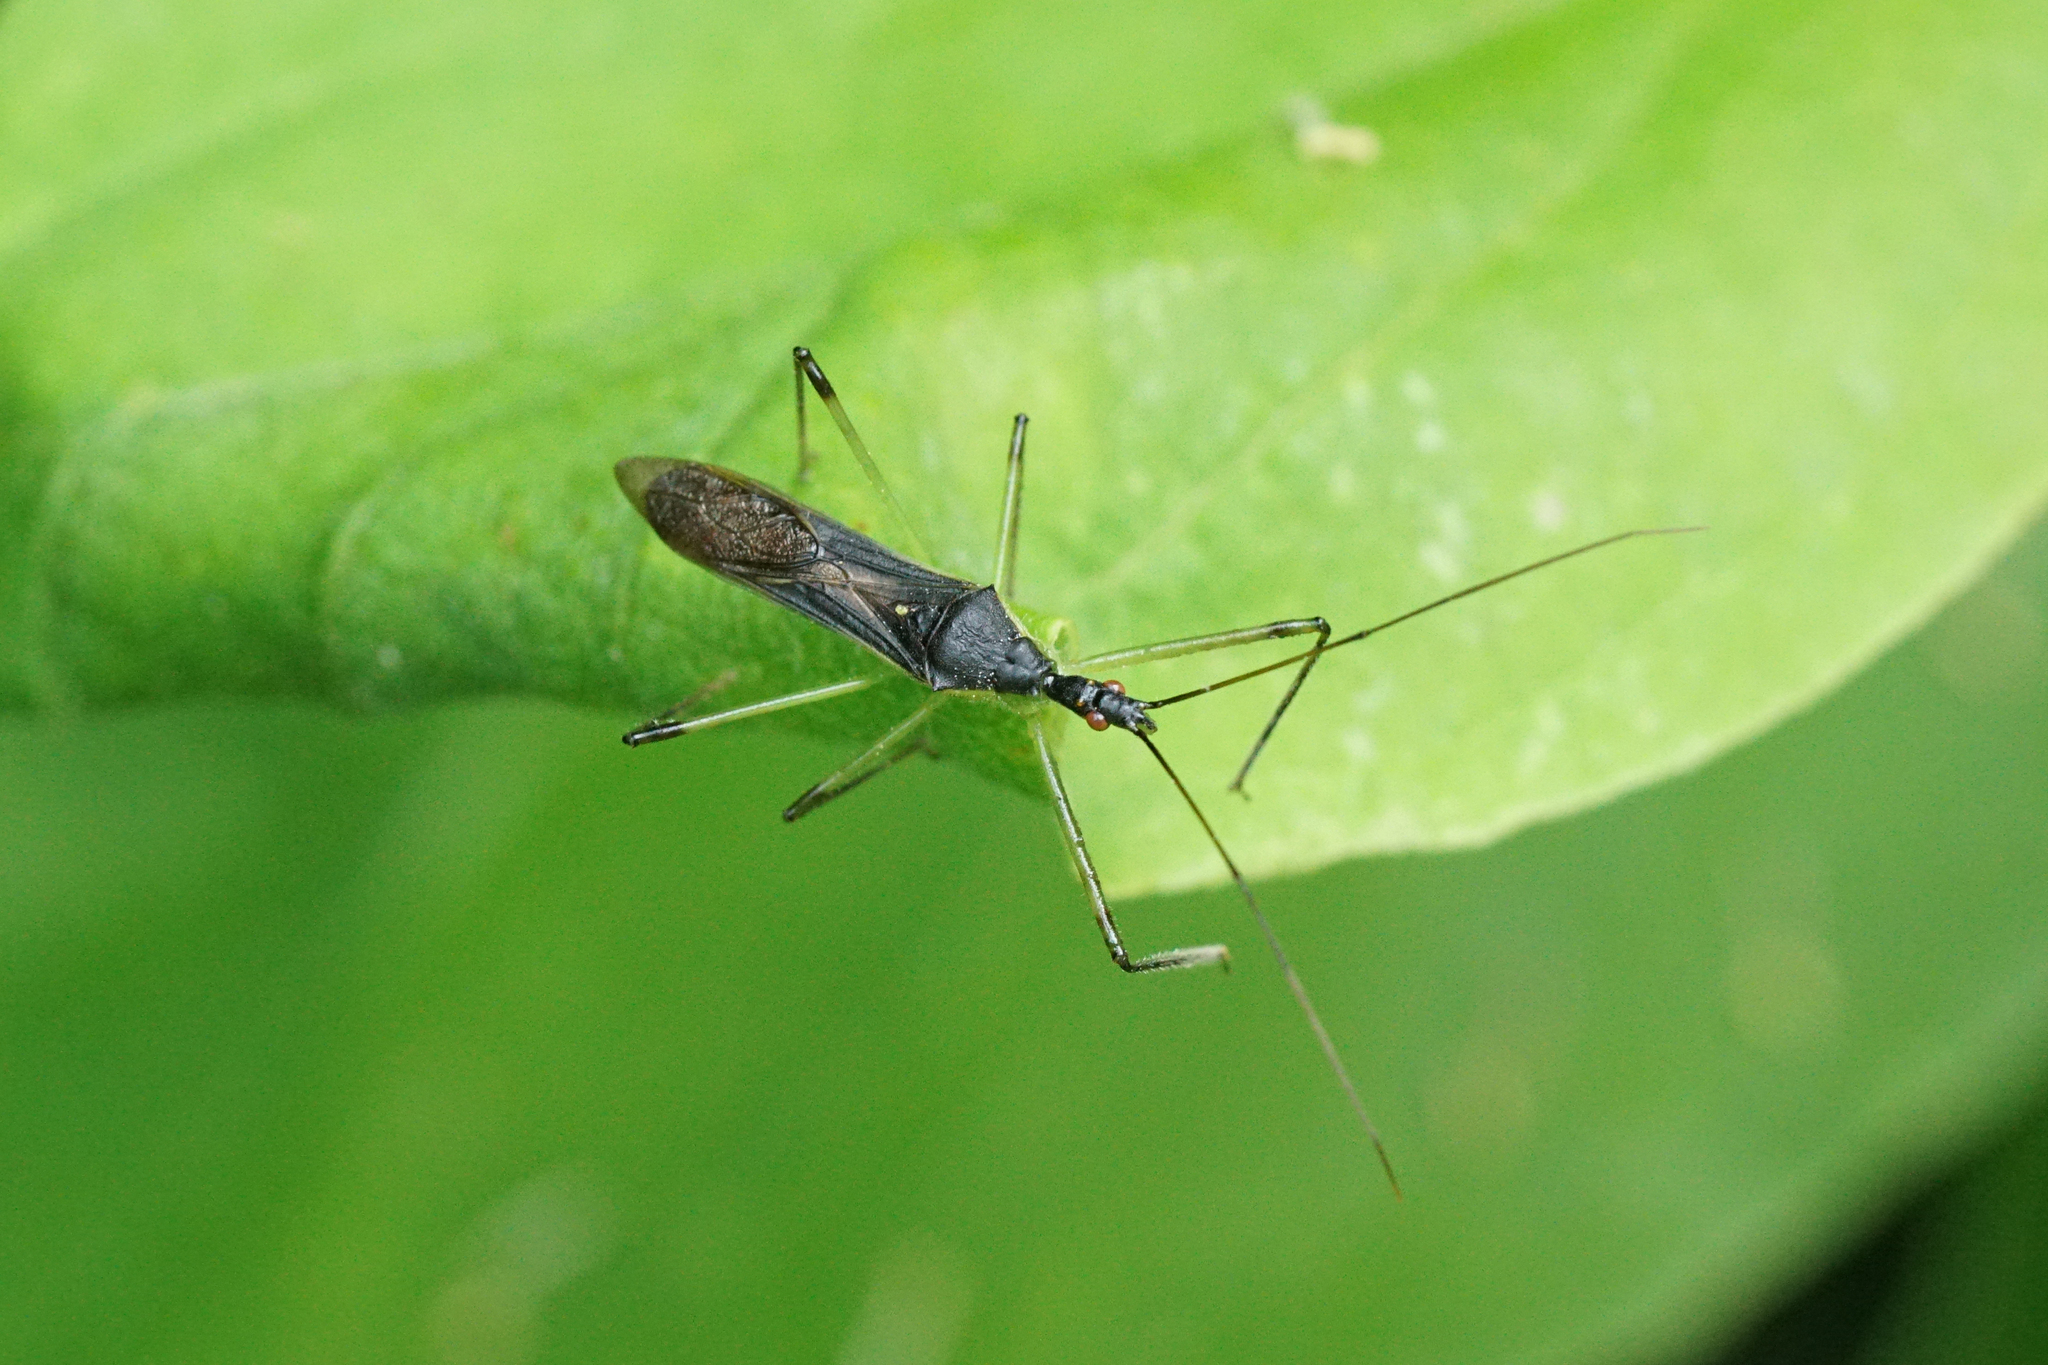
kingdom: Animalia
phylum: Arthropoda
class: Insecta
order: Hemiptera
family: Reduviidae
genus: Zelus
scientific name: Zelus luridus
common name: Pale green assassin bug
